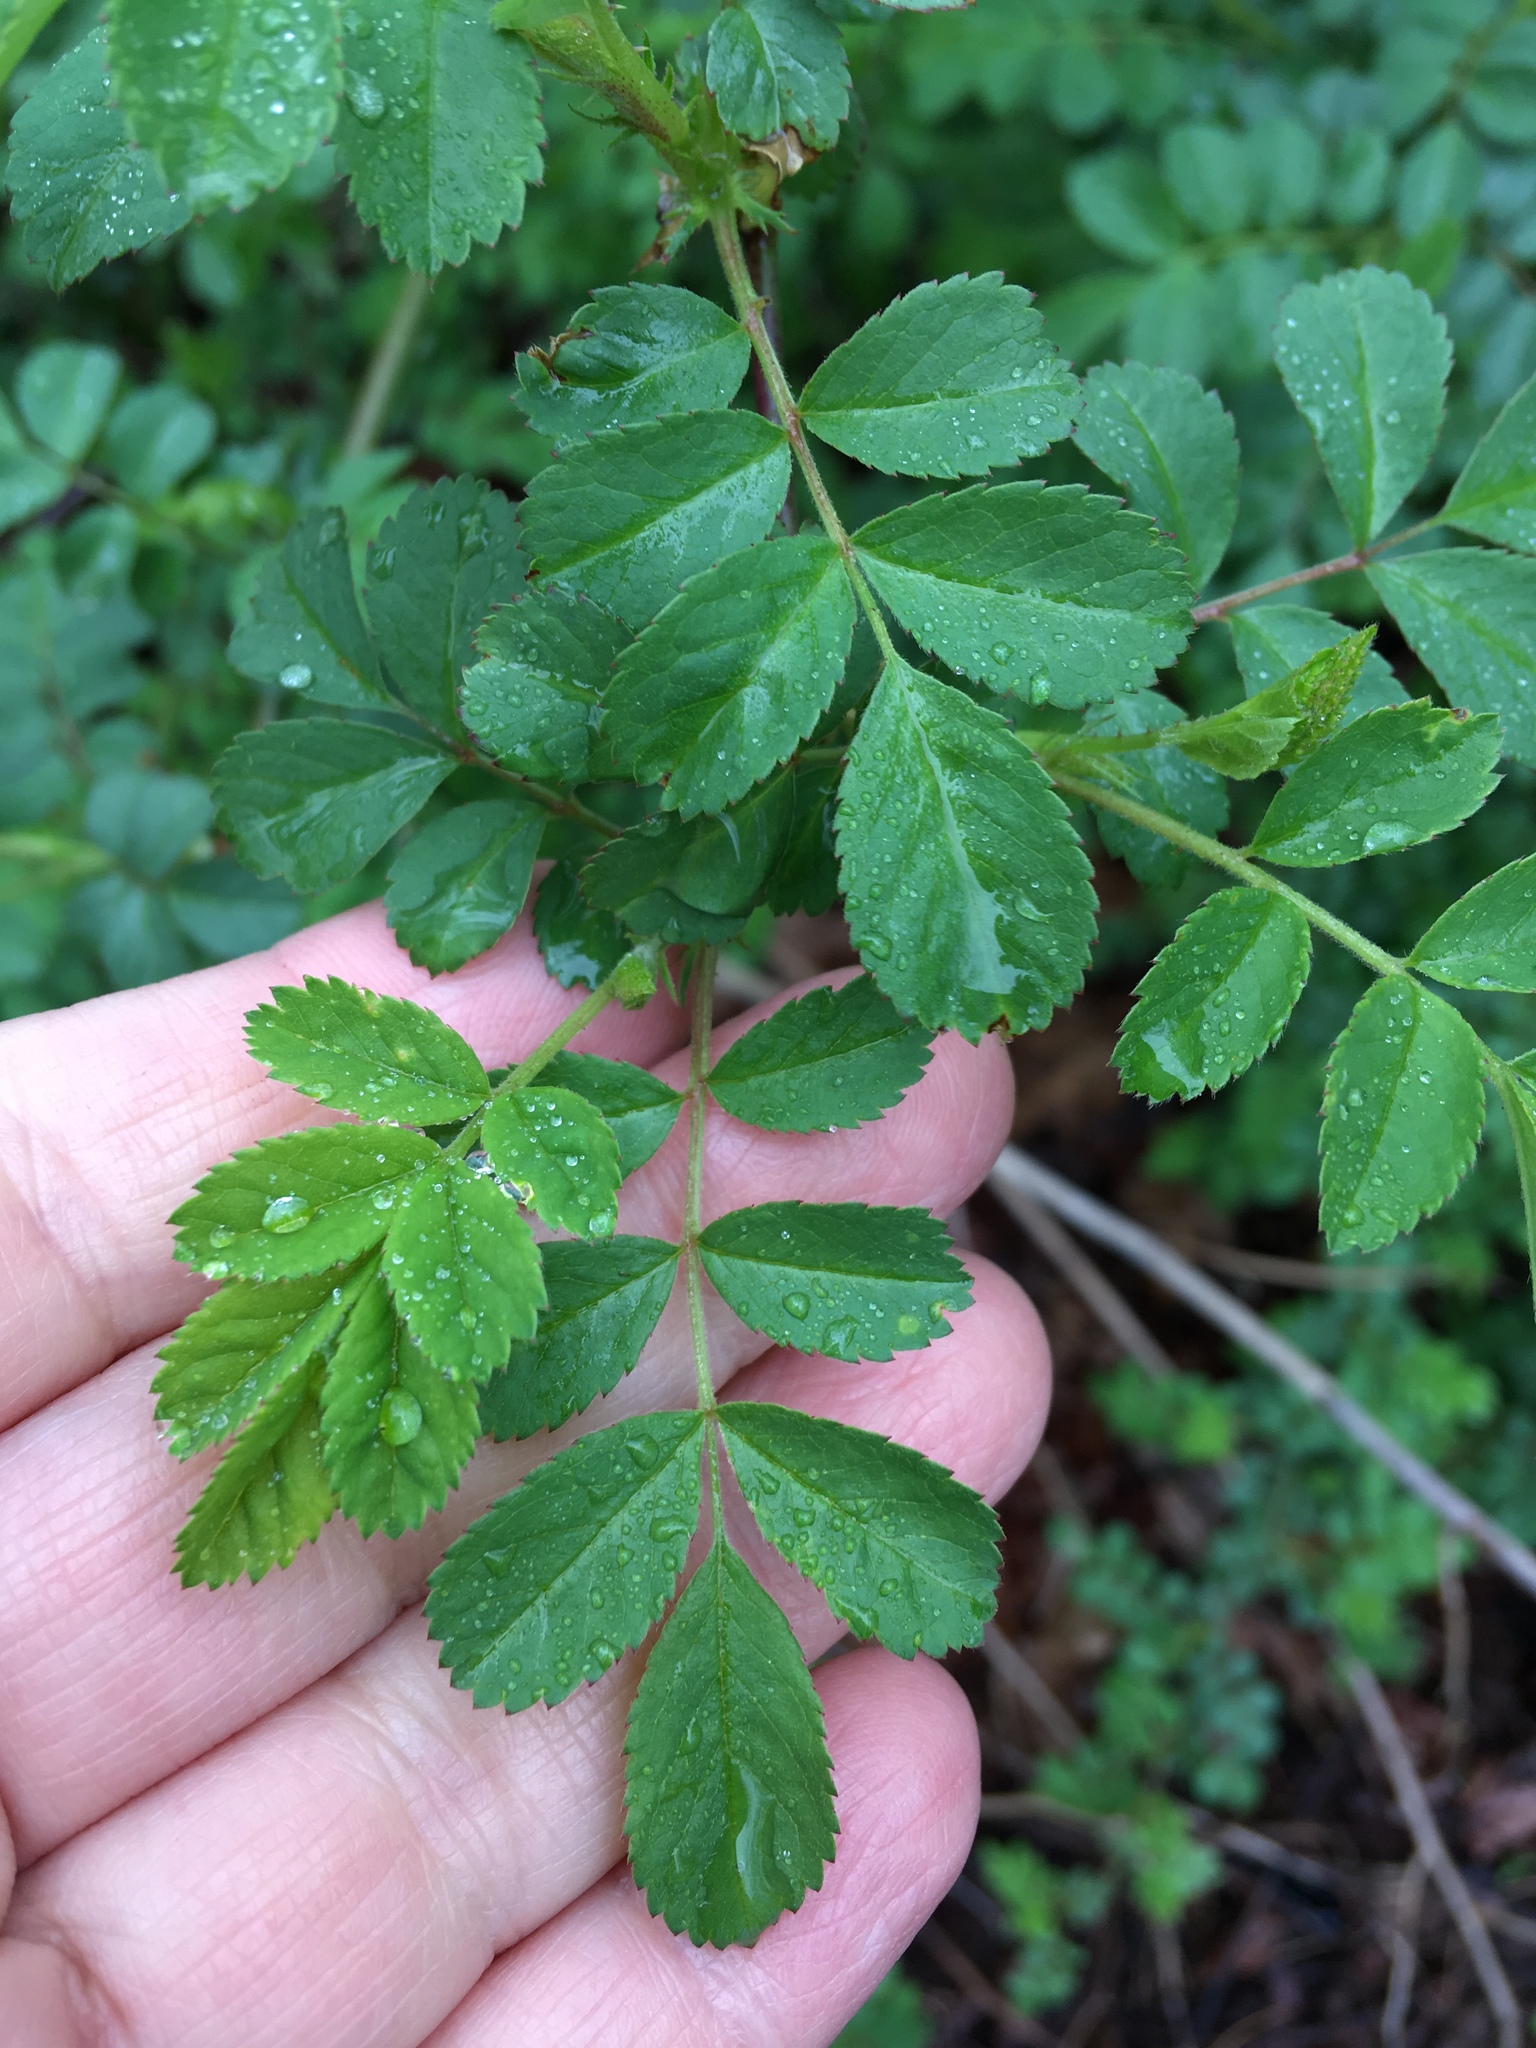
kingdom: Plantae
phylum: Tracheophyta
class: Magnoliopsida
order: Rosales
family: Rosaceae
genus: Rosa
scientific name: Rosa multiflora
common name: Multiflora rose
